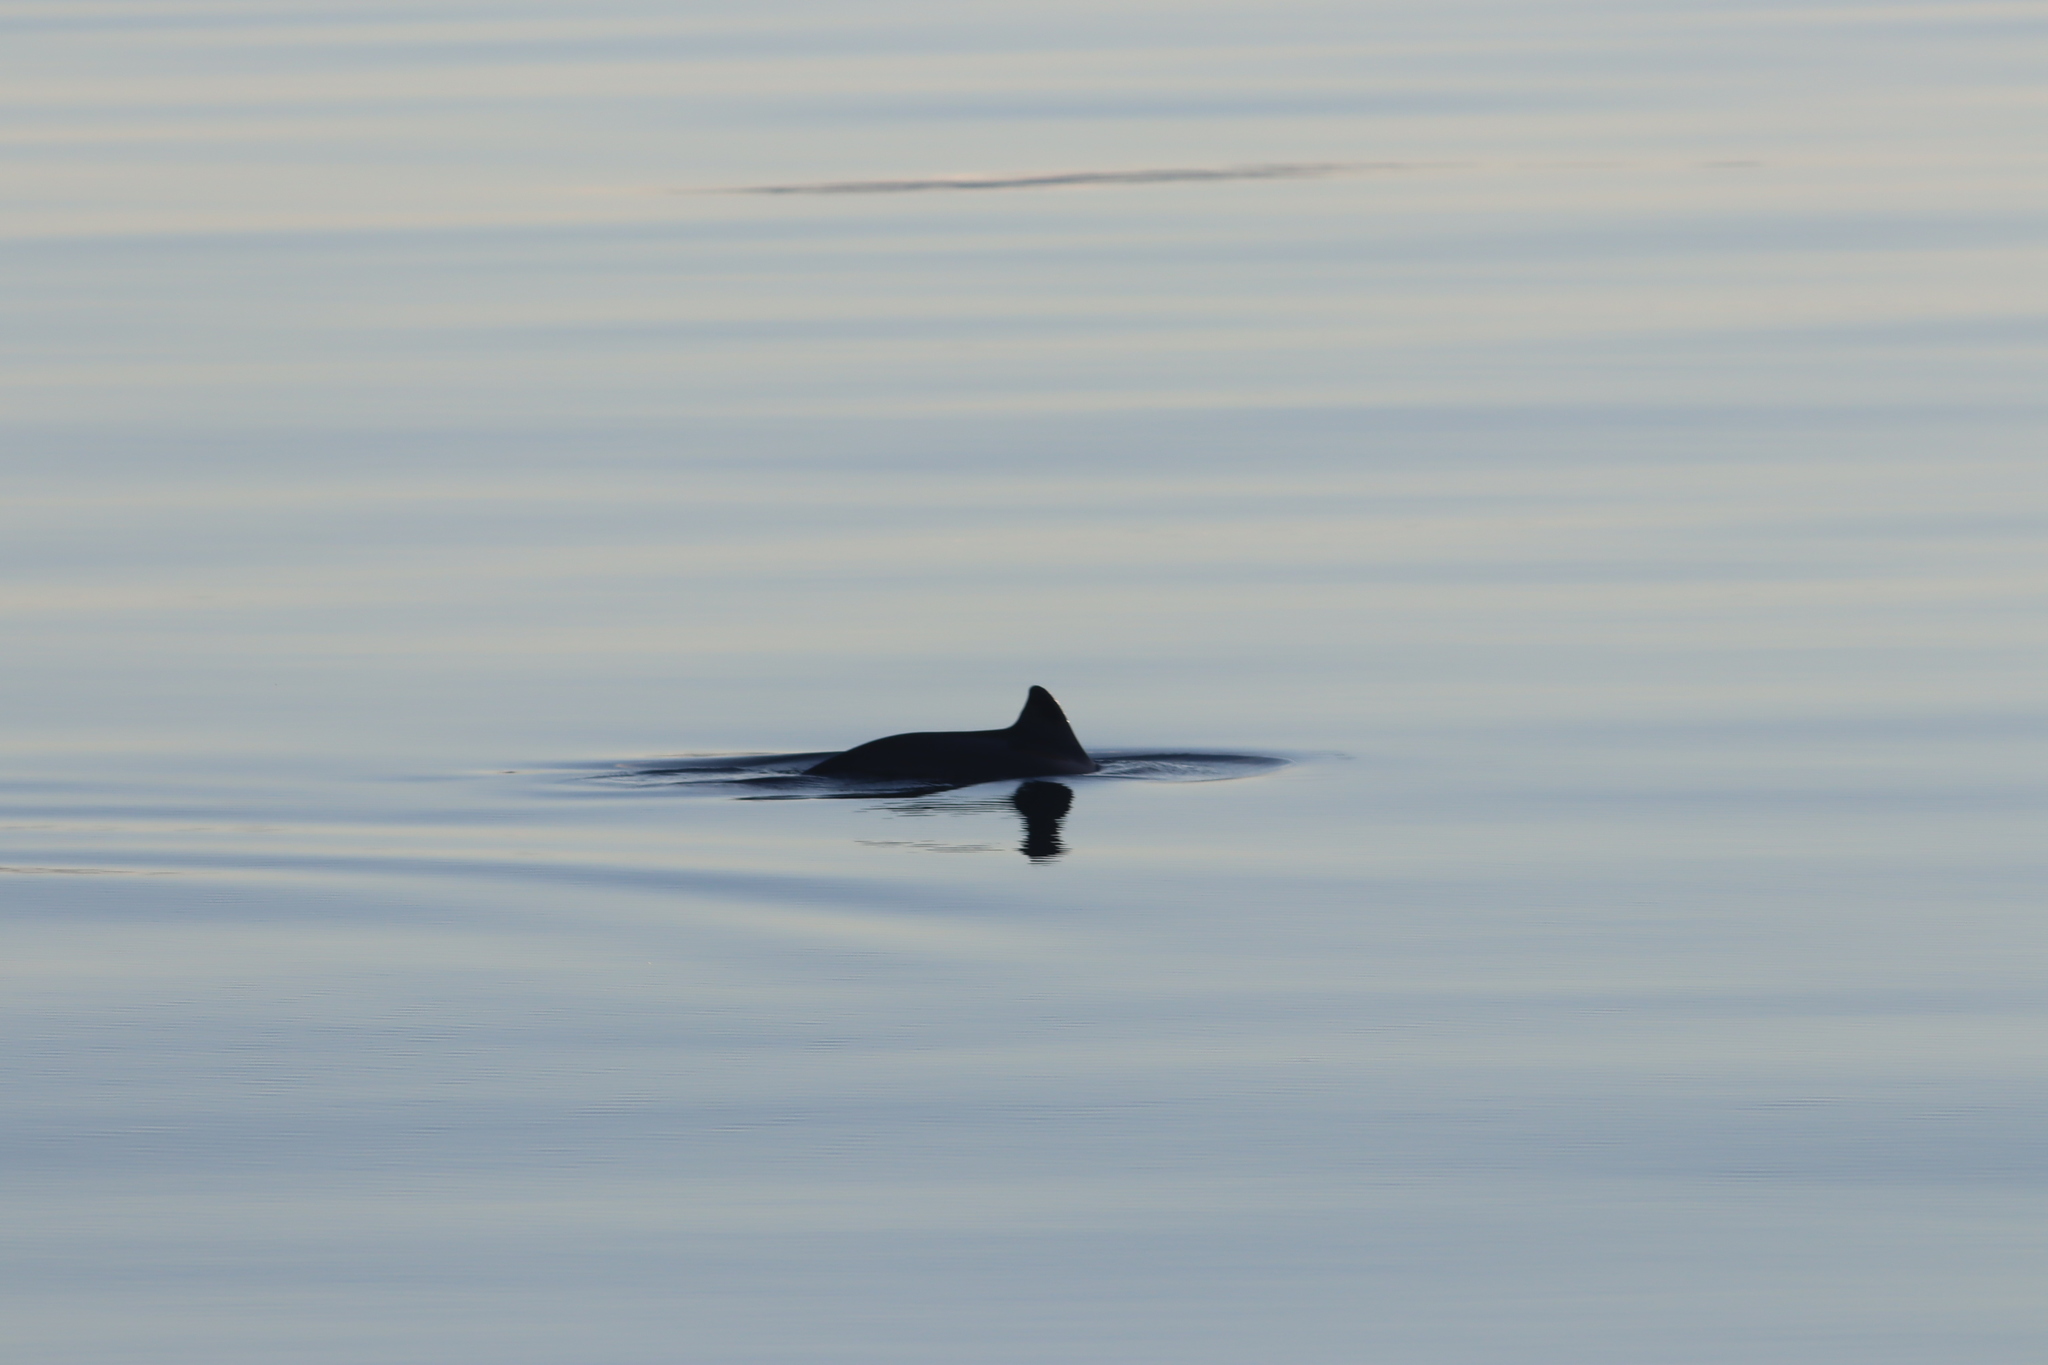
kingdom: Animalia
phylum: Chordata
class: Mammalia
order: Cetacea
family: Phocoenidae
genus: Phocoena
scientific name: Phocoena phocoena
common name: Harbor porpoise
